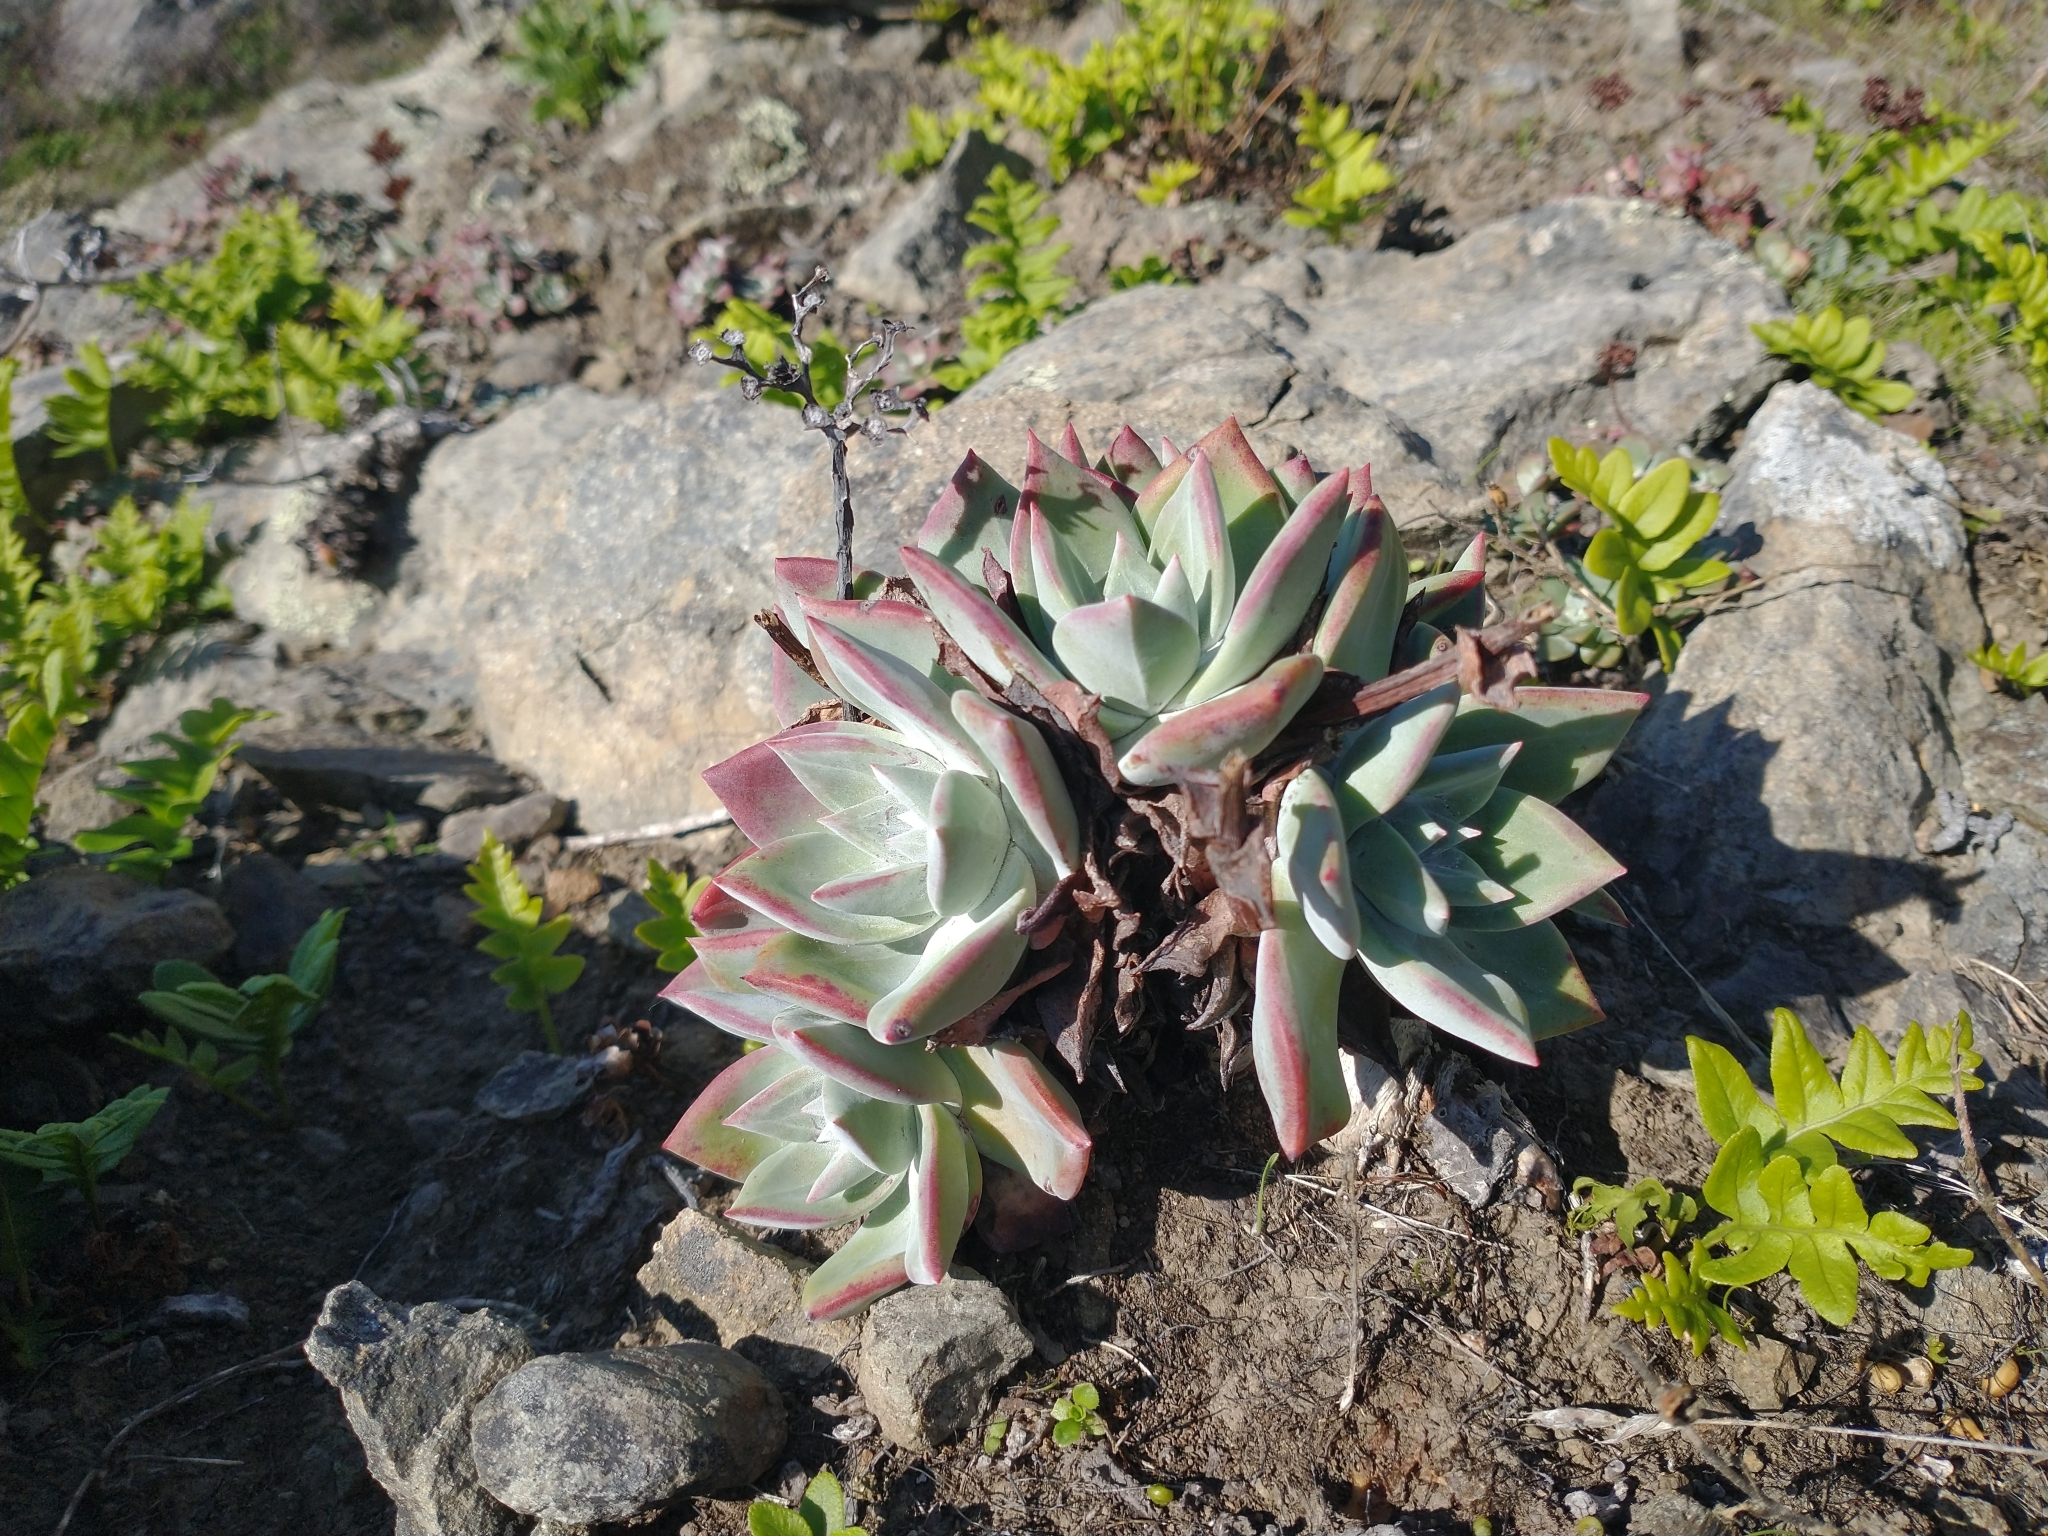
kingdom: Plantae
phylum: Tracheophyta
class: Magnoliopsida
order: Saxifragales
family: Crassulaceae
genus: Dudleya
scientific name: Dudleya farinosa
